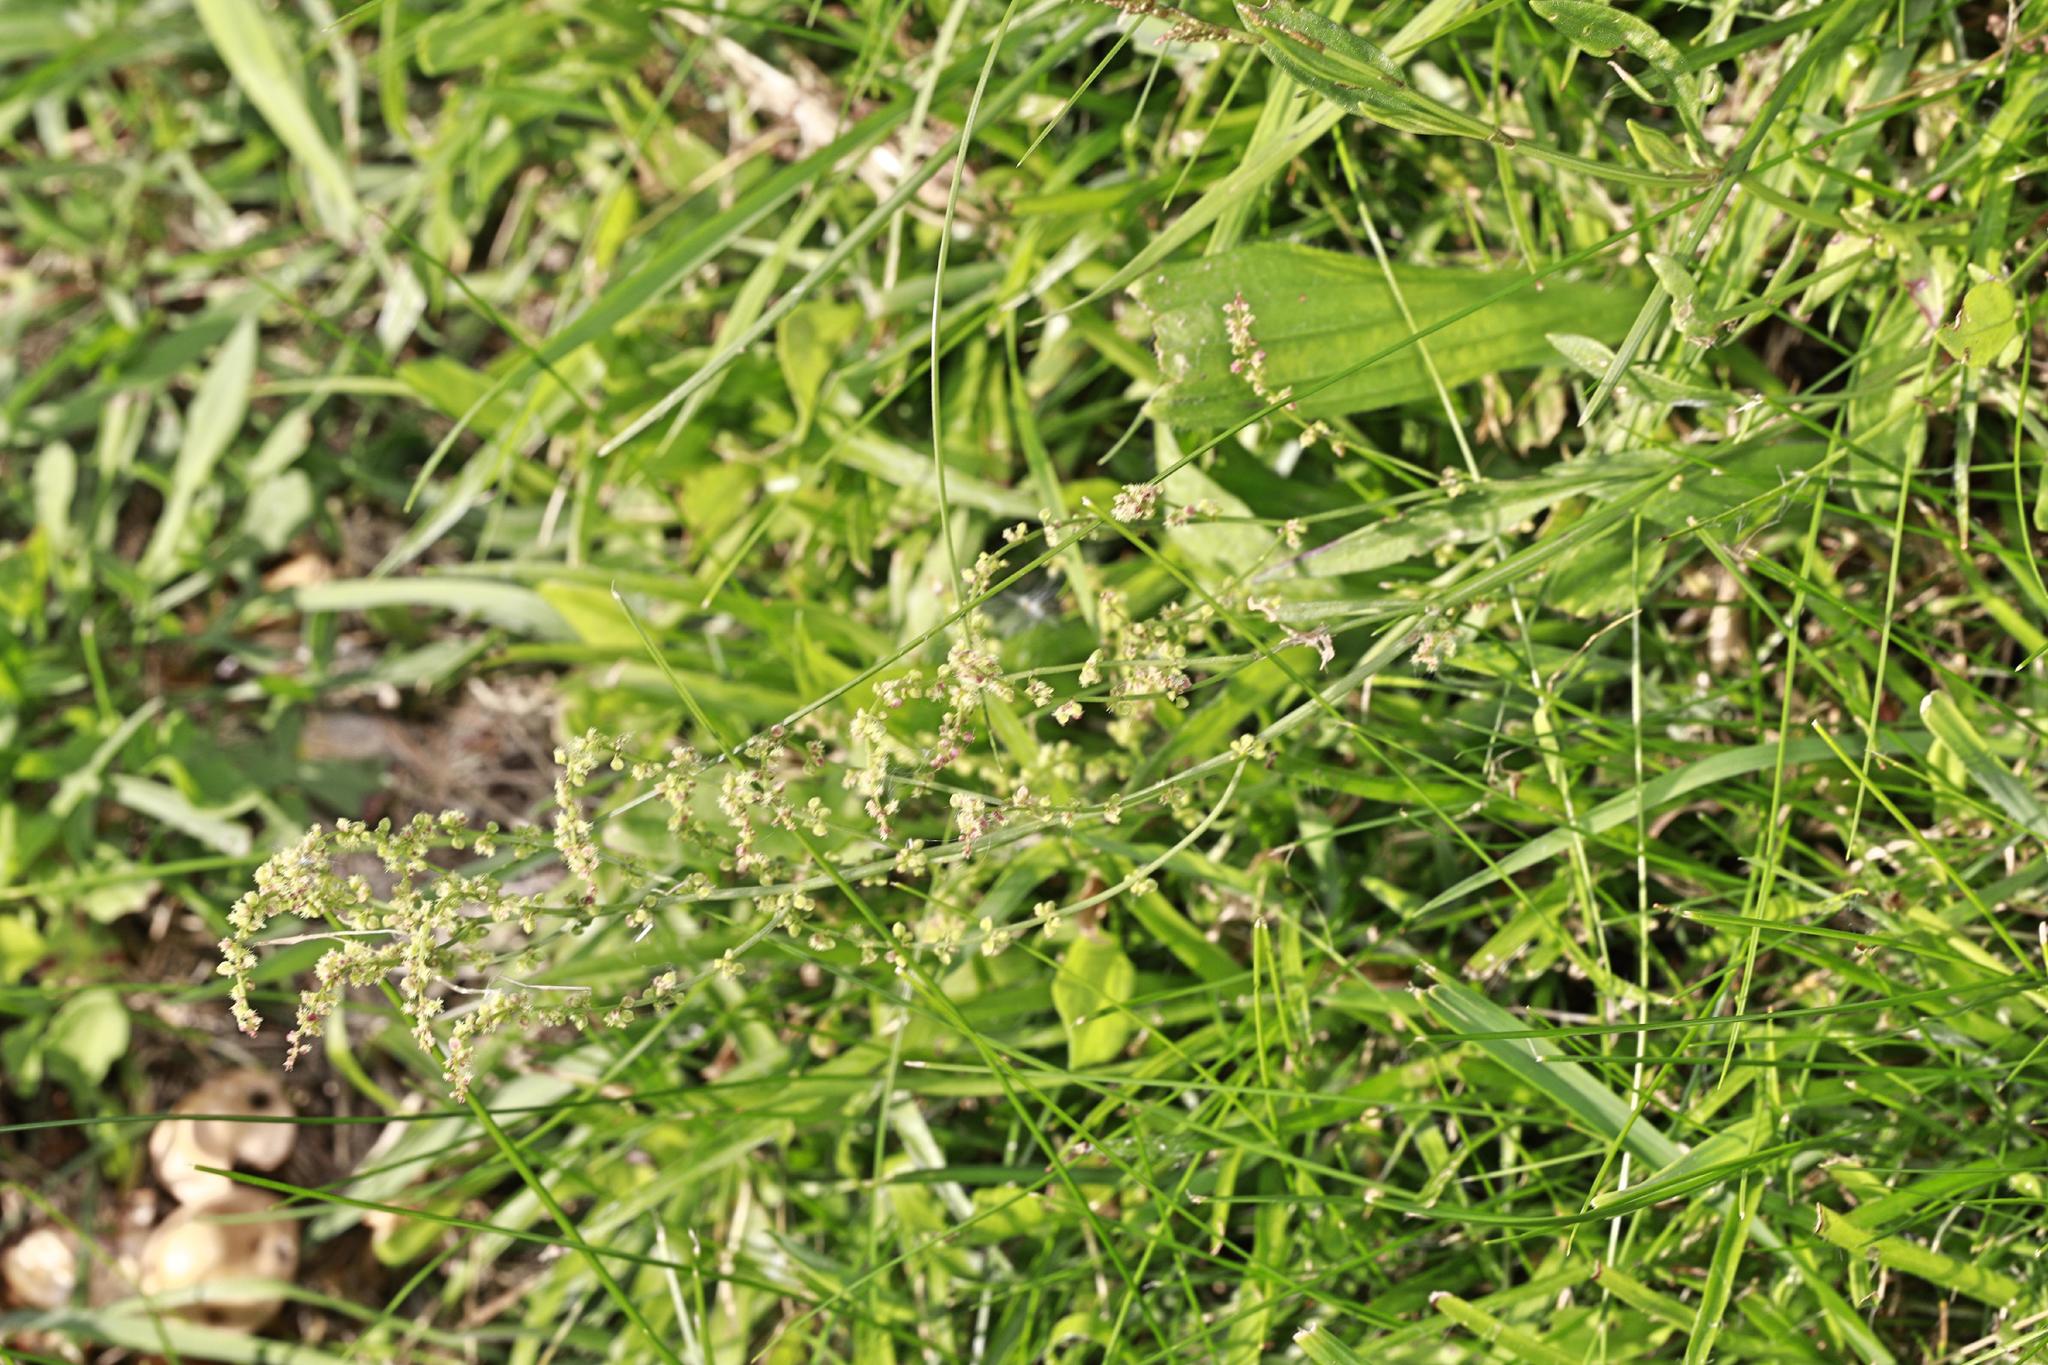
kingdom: Plantae
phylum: Tracheophyta
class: Magnoliopsida
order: Caryophyllales
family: Polygonaceae
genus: Rumex
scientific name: Rumex acetosella
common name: Common sheep sorrel
